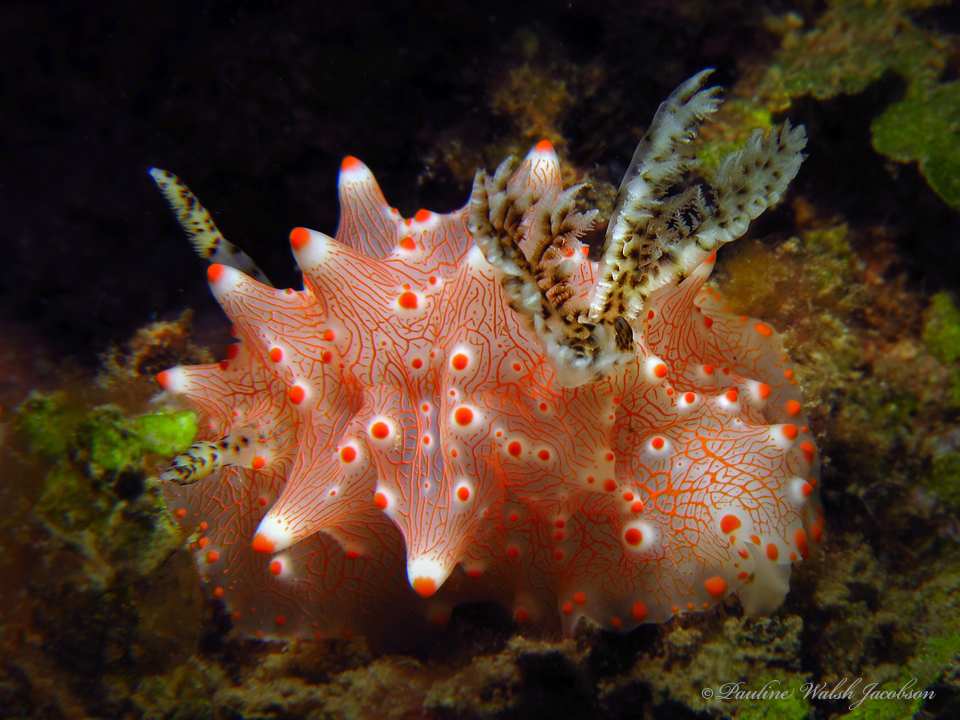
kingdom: Animalia
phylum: Mollusca
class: Gastropoda
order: Nudibranchia
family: Discodorididae
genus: Halgerda
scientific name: Halgerda batangas
